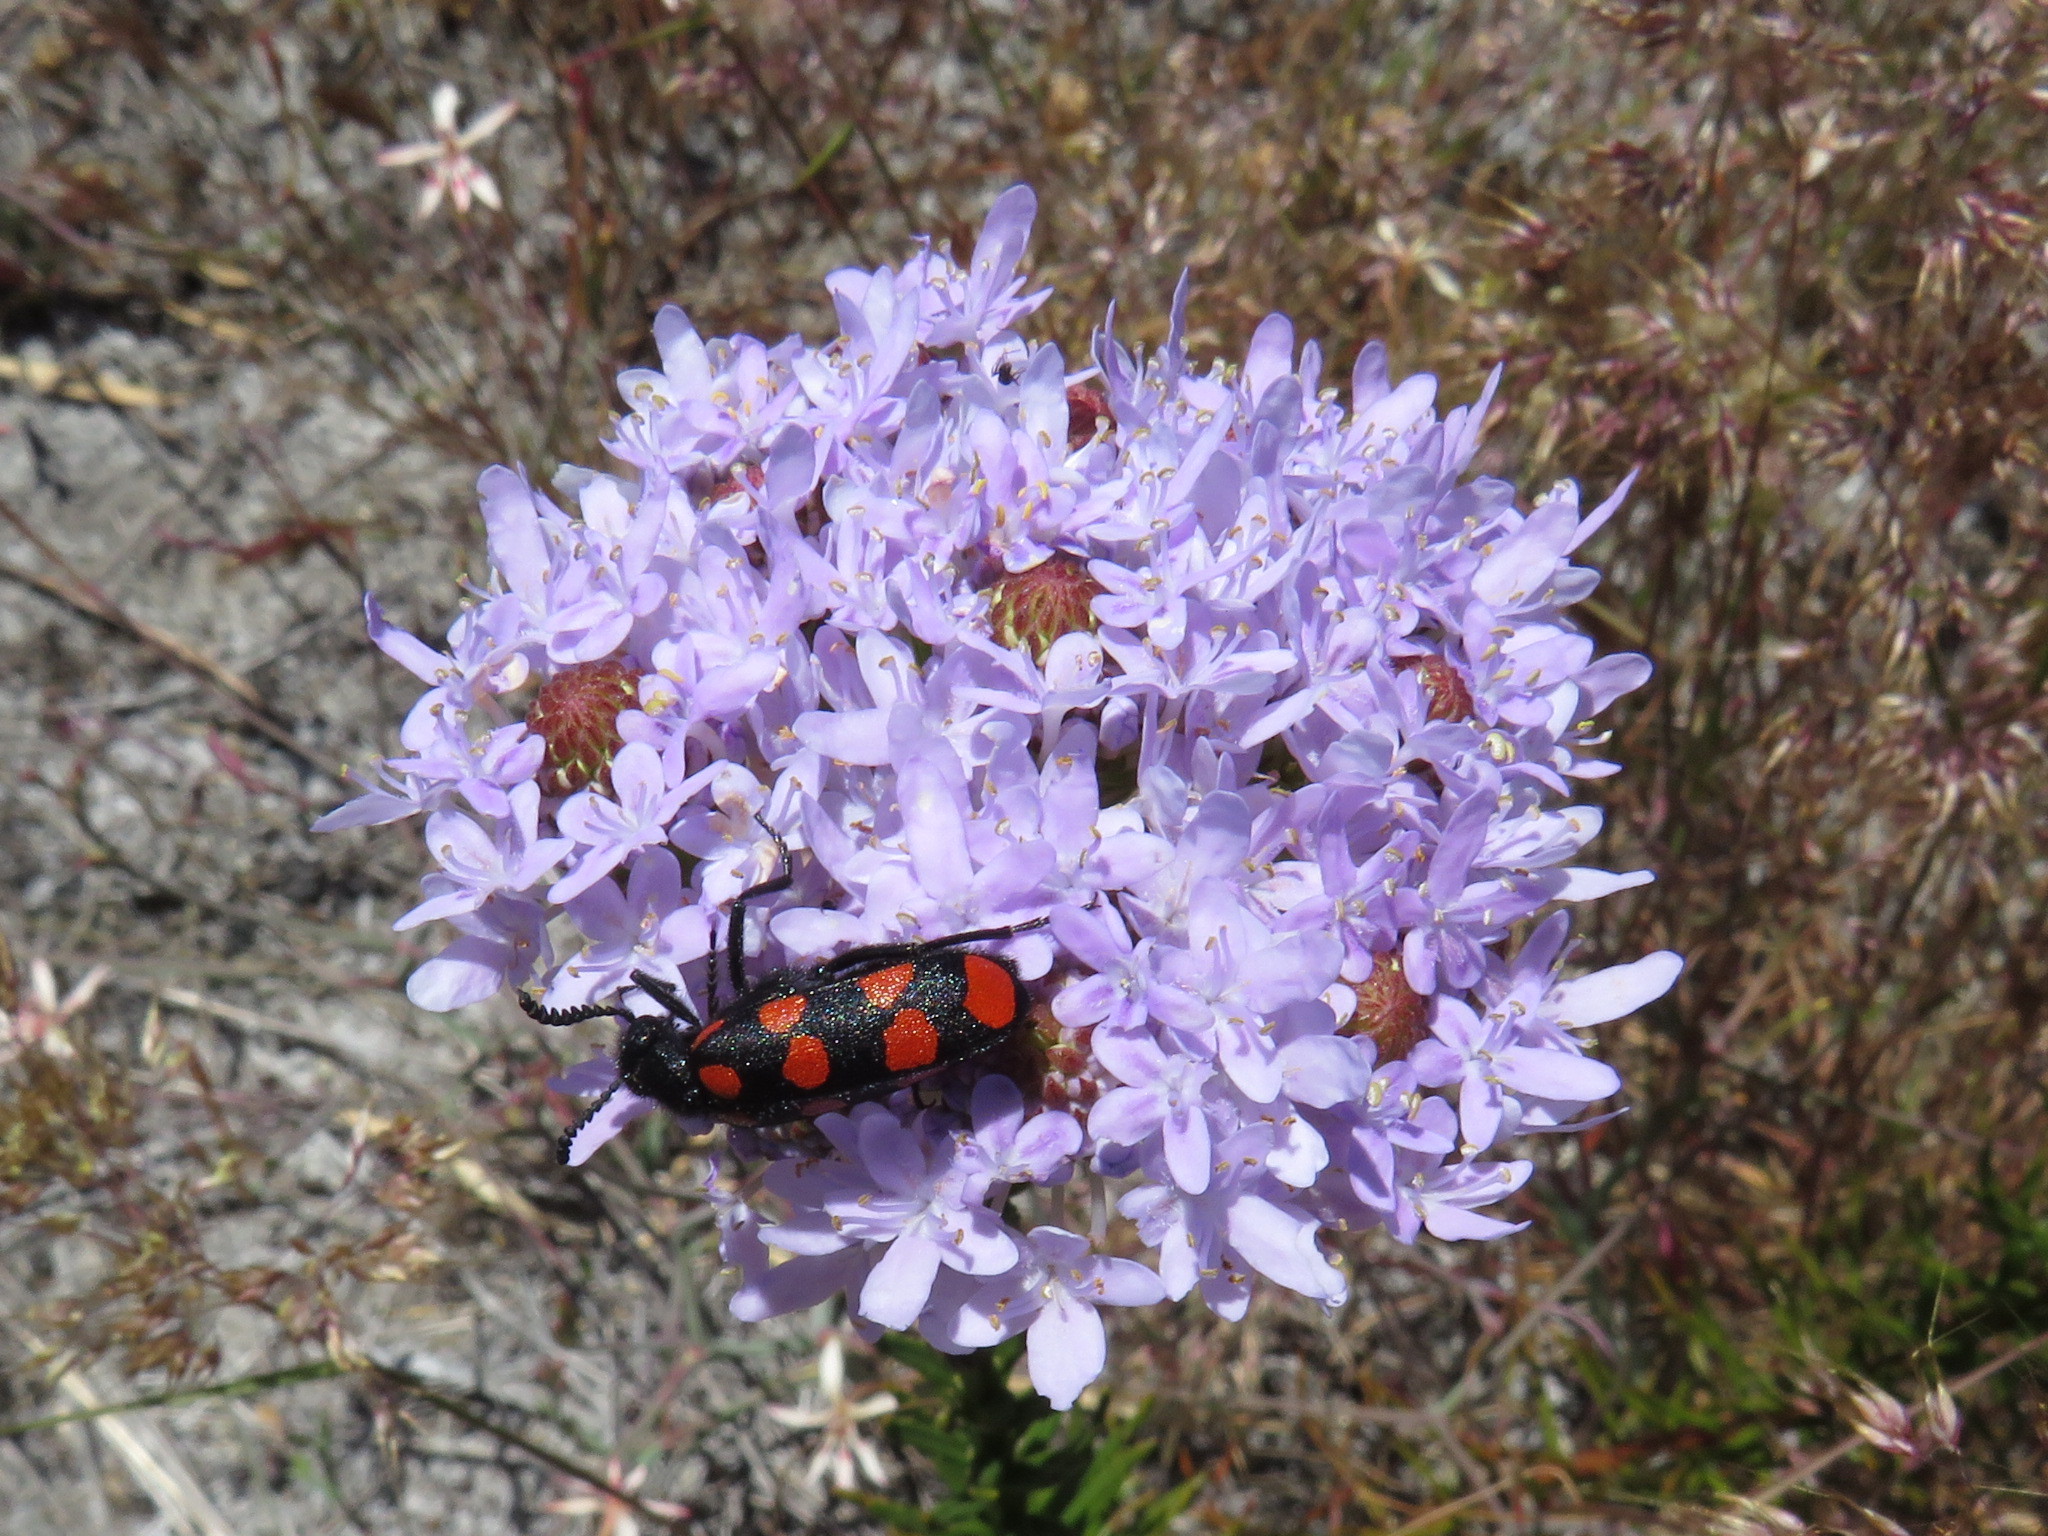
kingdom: Animalia
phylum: Arthropoda
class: Insecta
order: Coleoptera
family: Meloidae
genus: Ceroctis
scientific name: Ceroctis gyllenhalli
